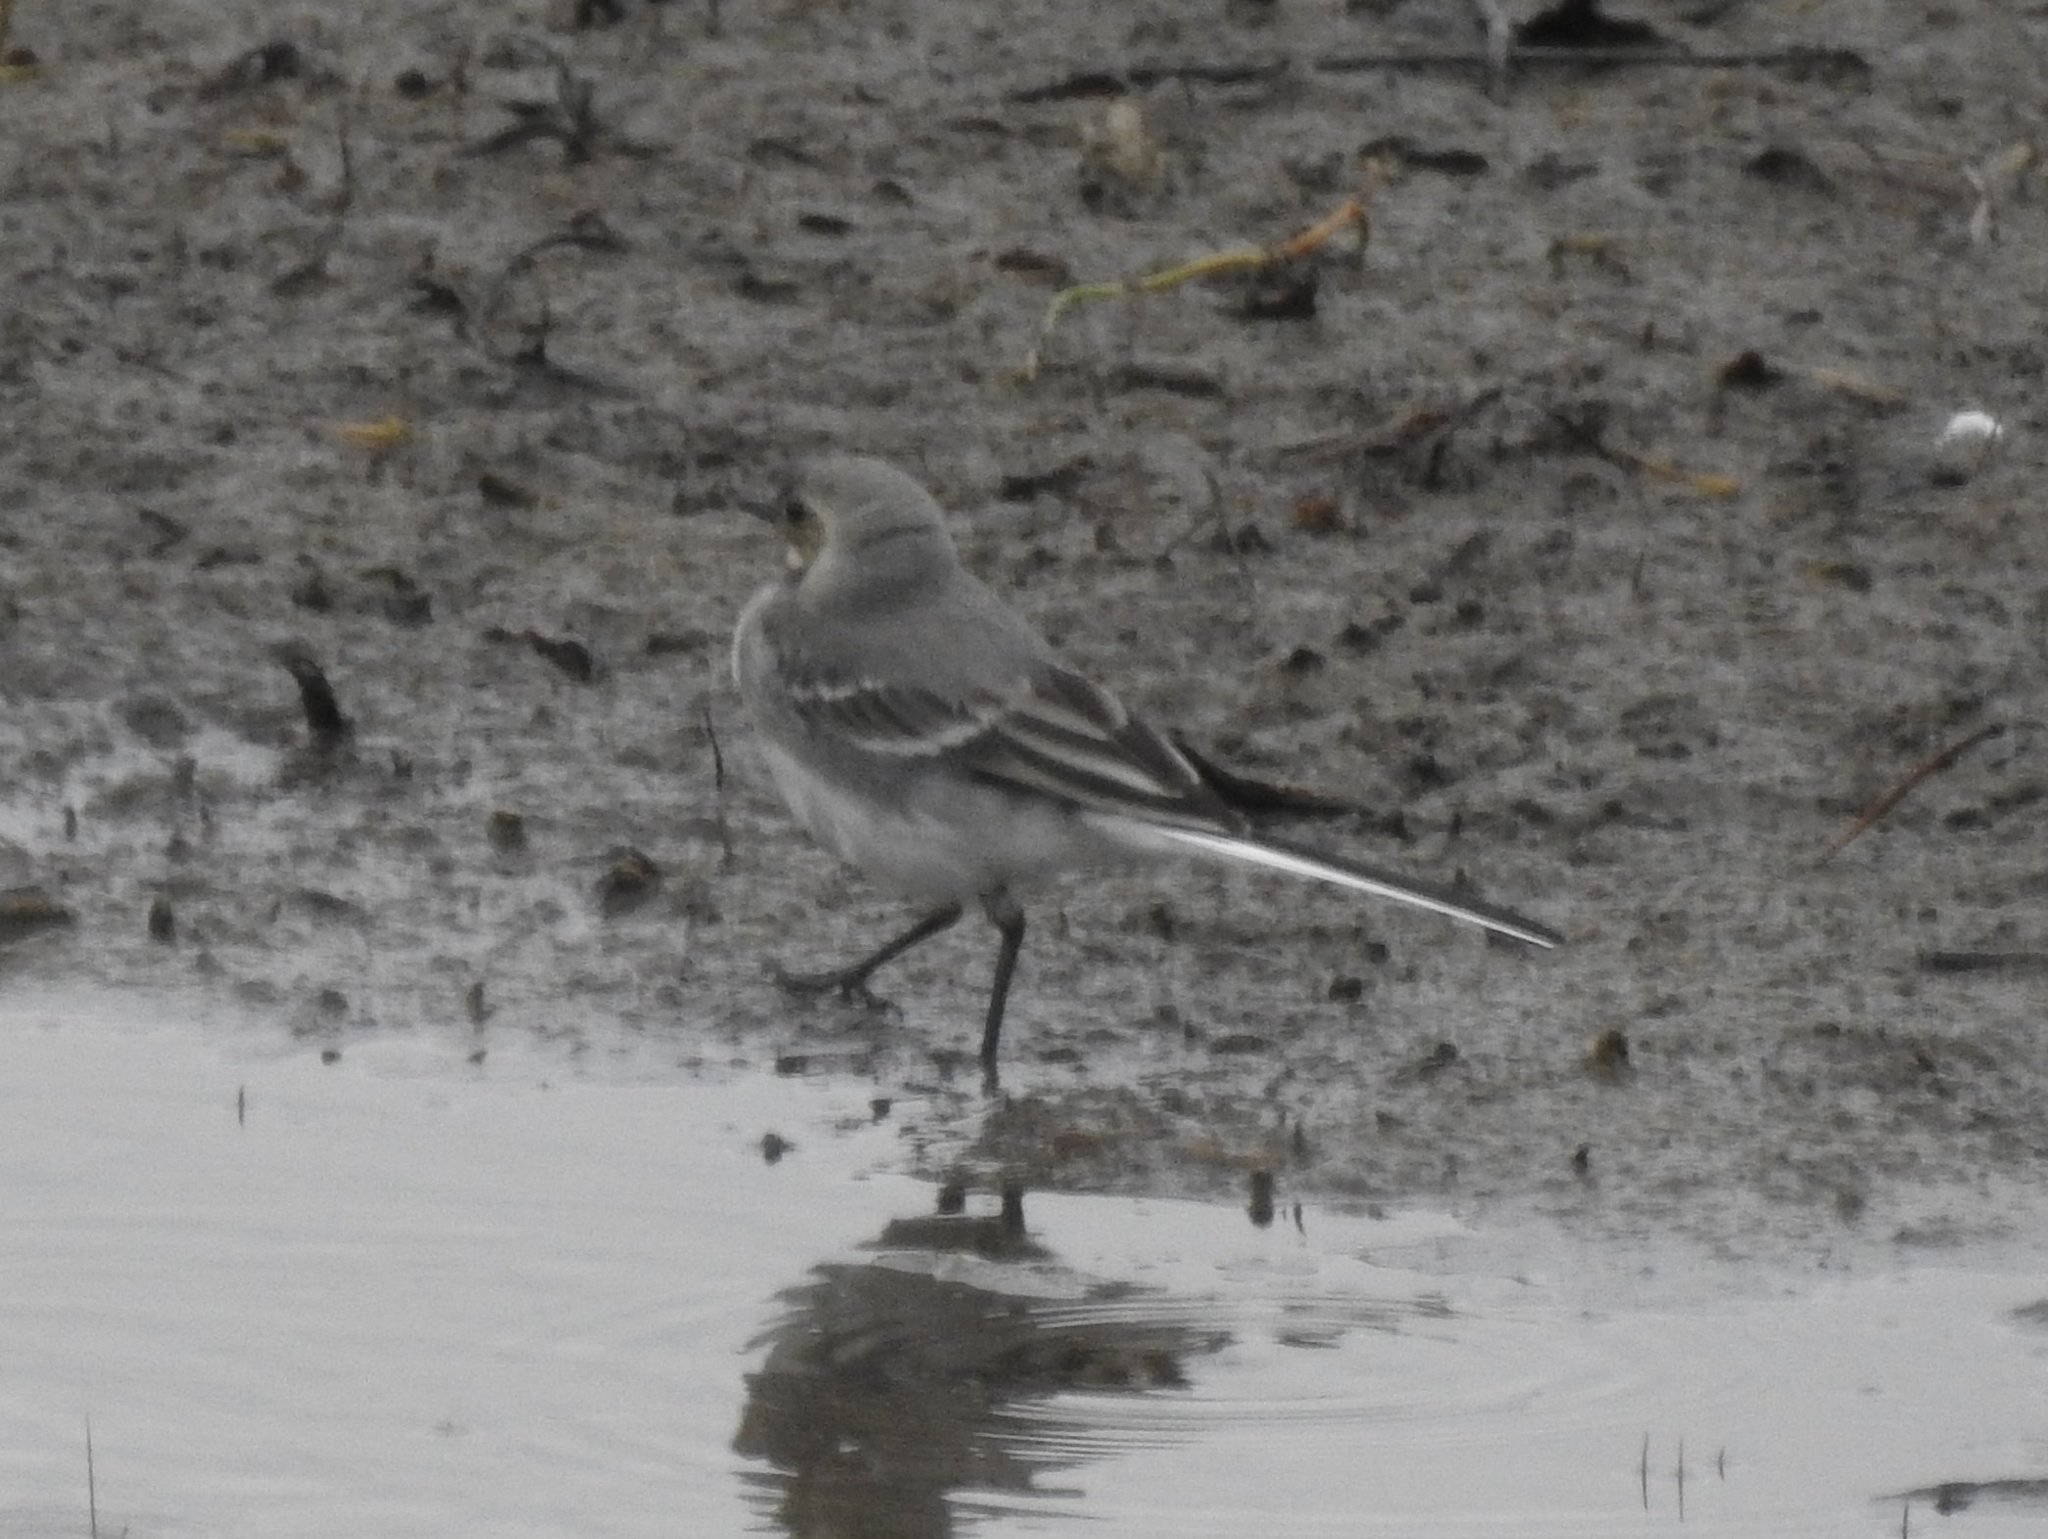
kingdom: Animalia
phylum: Chordata
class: Aves
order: Passeriformes
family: Motacillidae
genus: Motacilla
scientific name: Motacilla alba
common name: White wagtail
